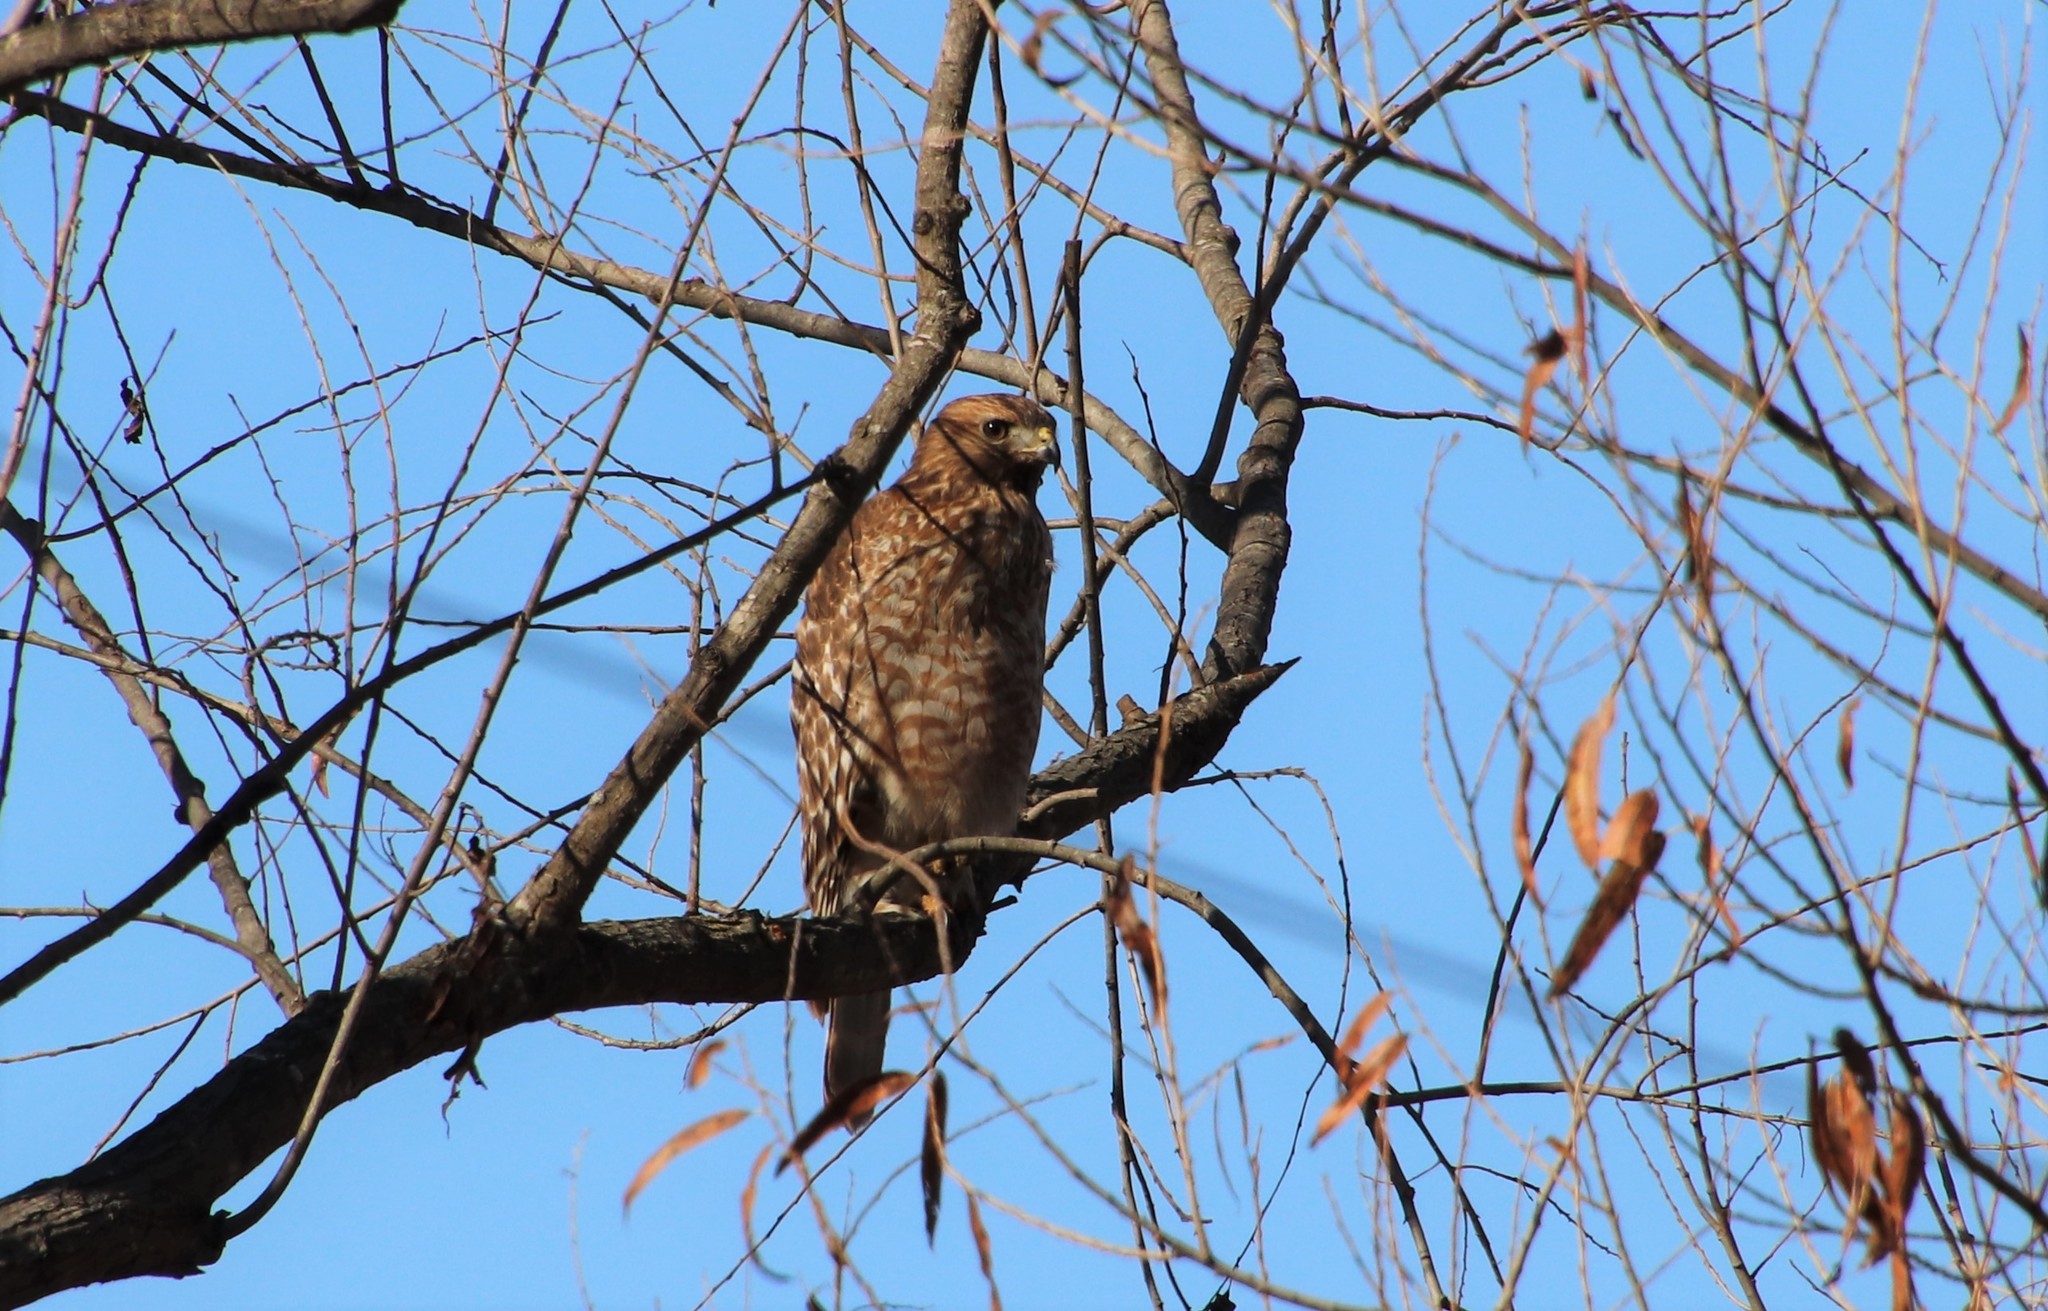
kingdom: Animalia
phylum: Chordata
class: Aves
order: Accipitriformes
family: Accipitridae
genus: Buteo
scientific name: Buteo lineatus
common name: Red-shouldered hawk
